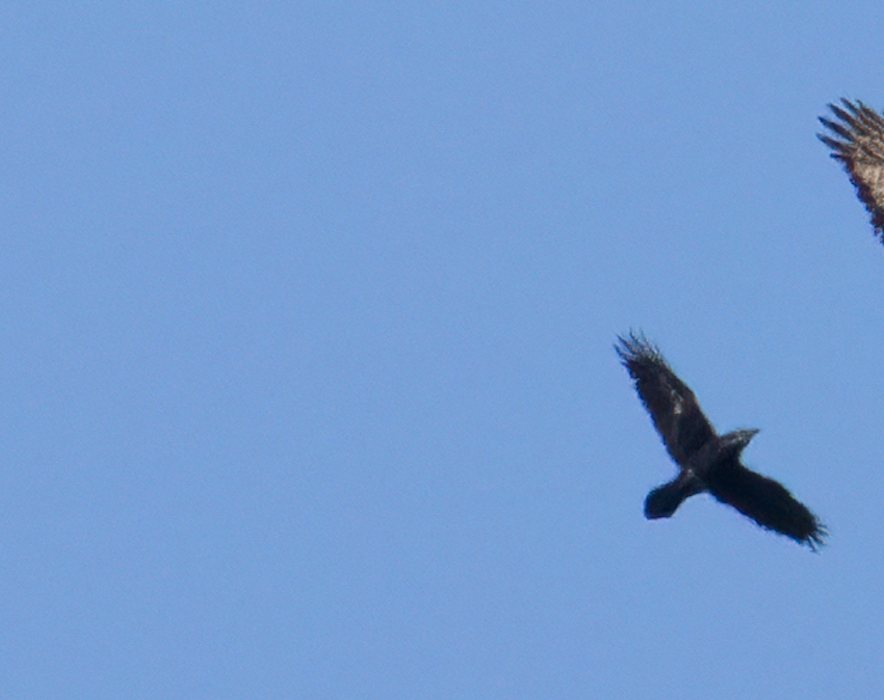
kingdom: Animalia
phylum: Chordata
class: Aves
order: Passeriformes
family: Corvidae
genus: Corvus
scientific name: Corvus corax
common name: Common raven
